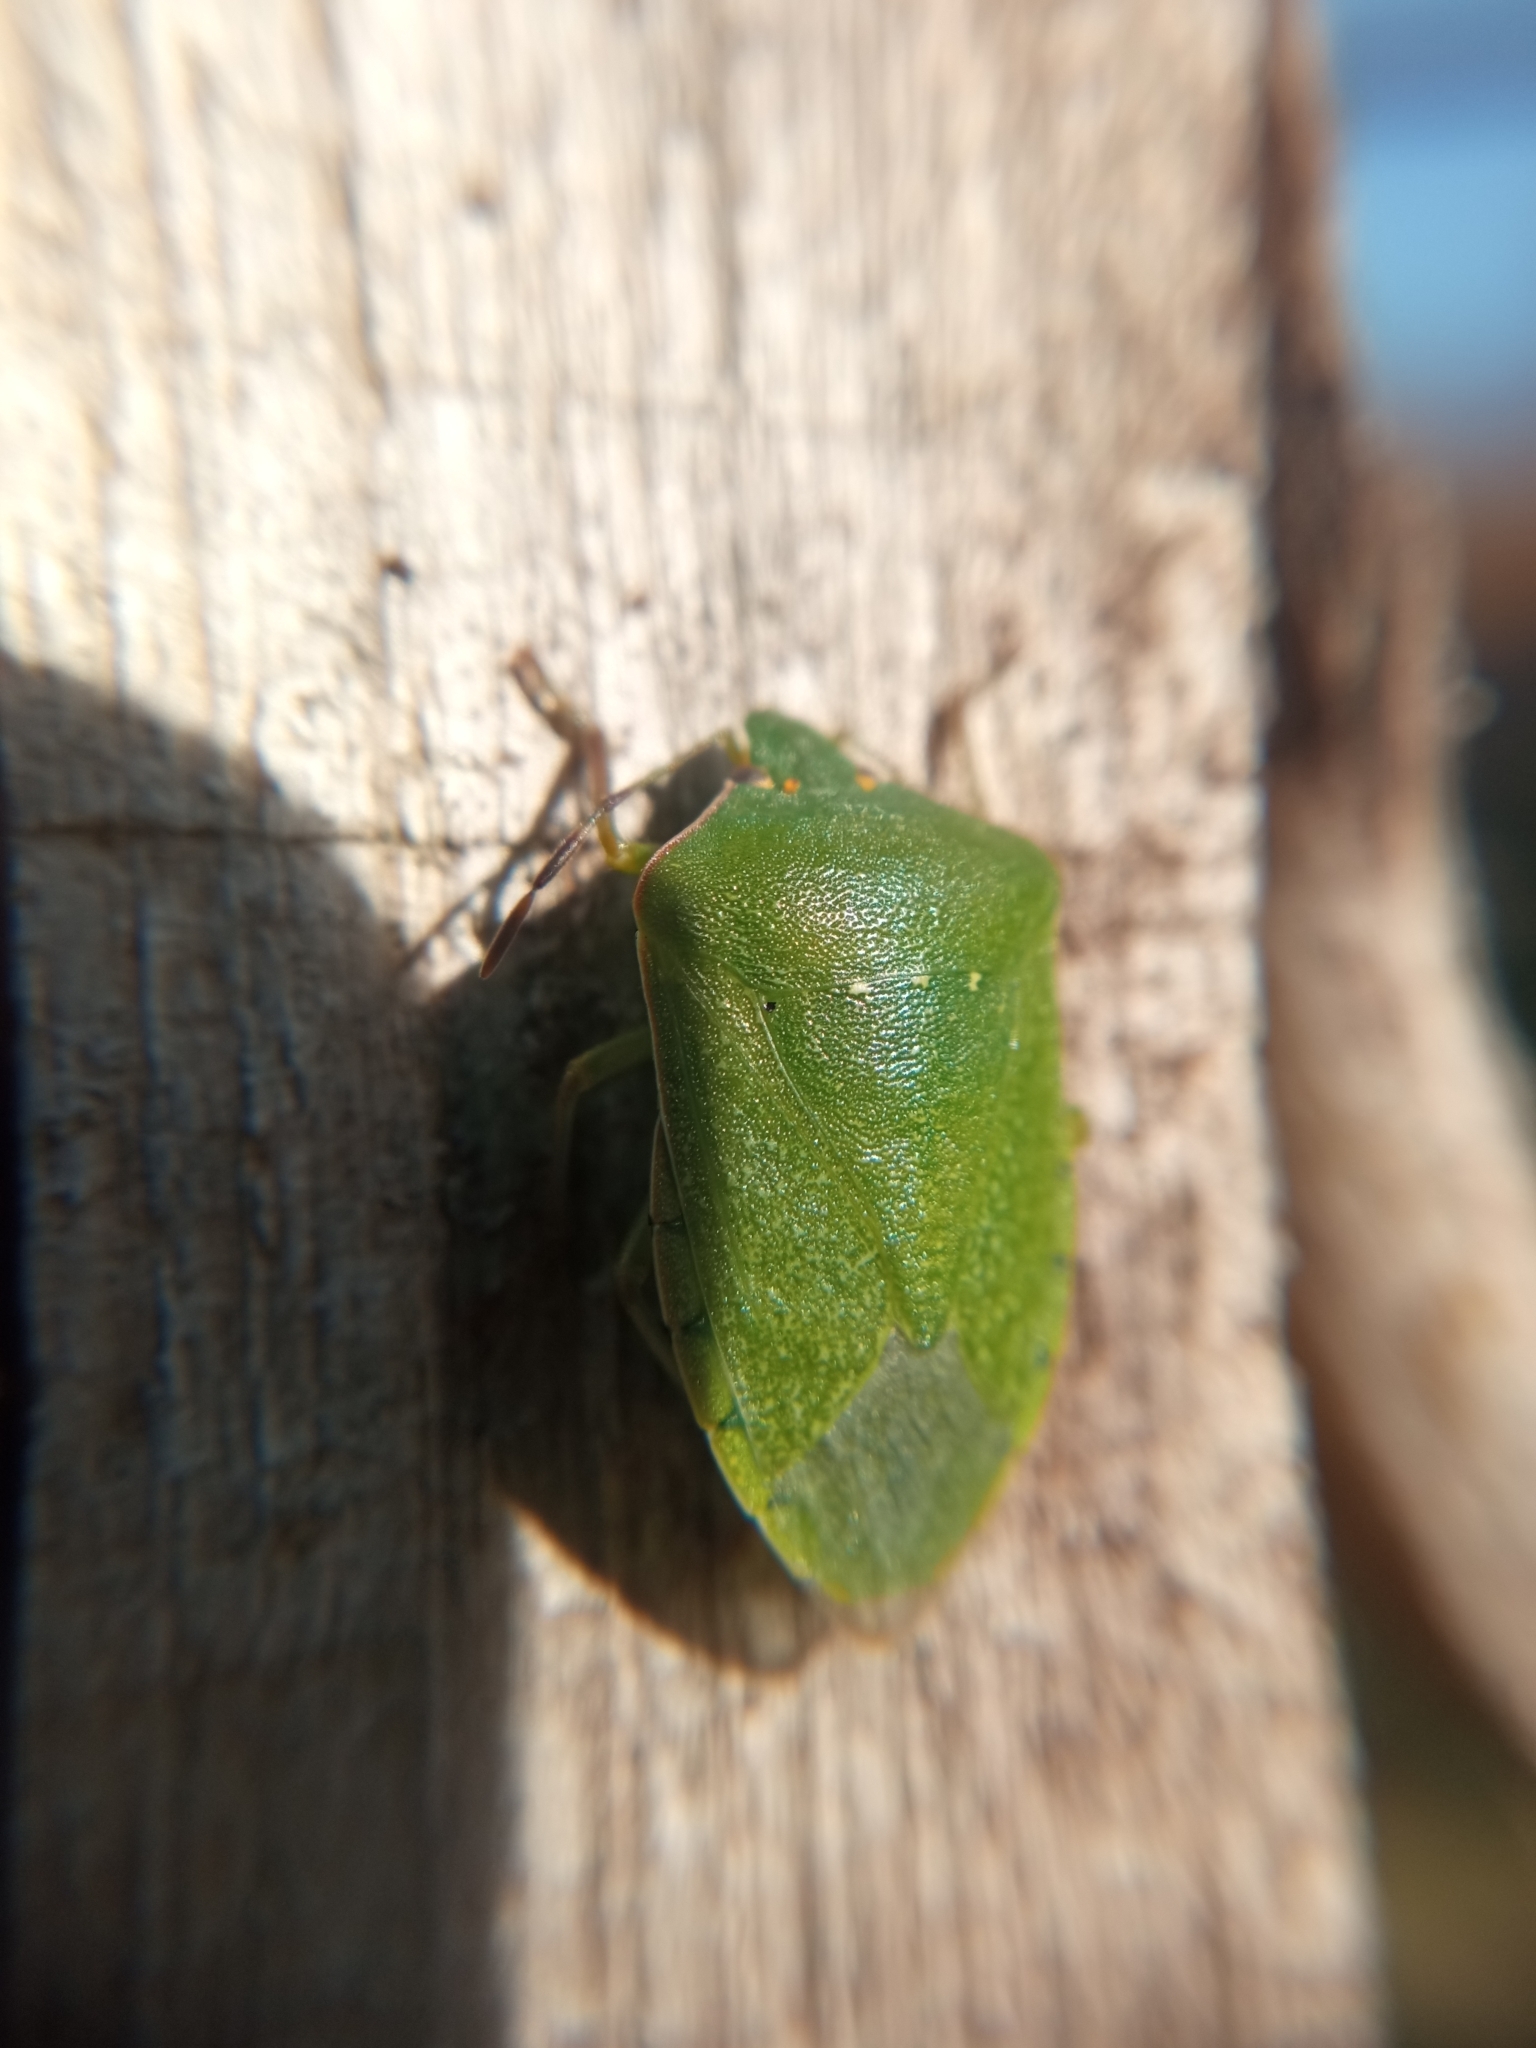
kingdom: Animalia
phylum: Arthropoda
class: Insecta
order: Hemiptera
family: Pentatomidae
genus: Nezara
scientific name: Nezara viridula
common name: Southern green stink bug
